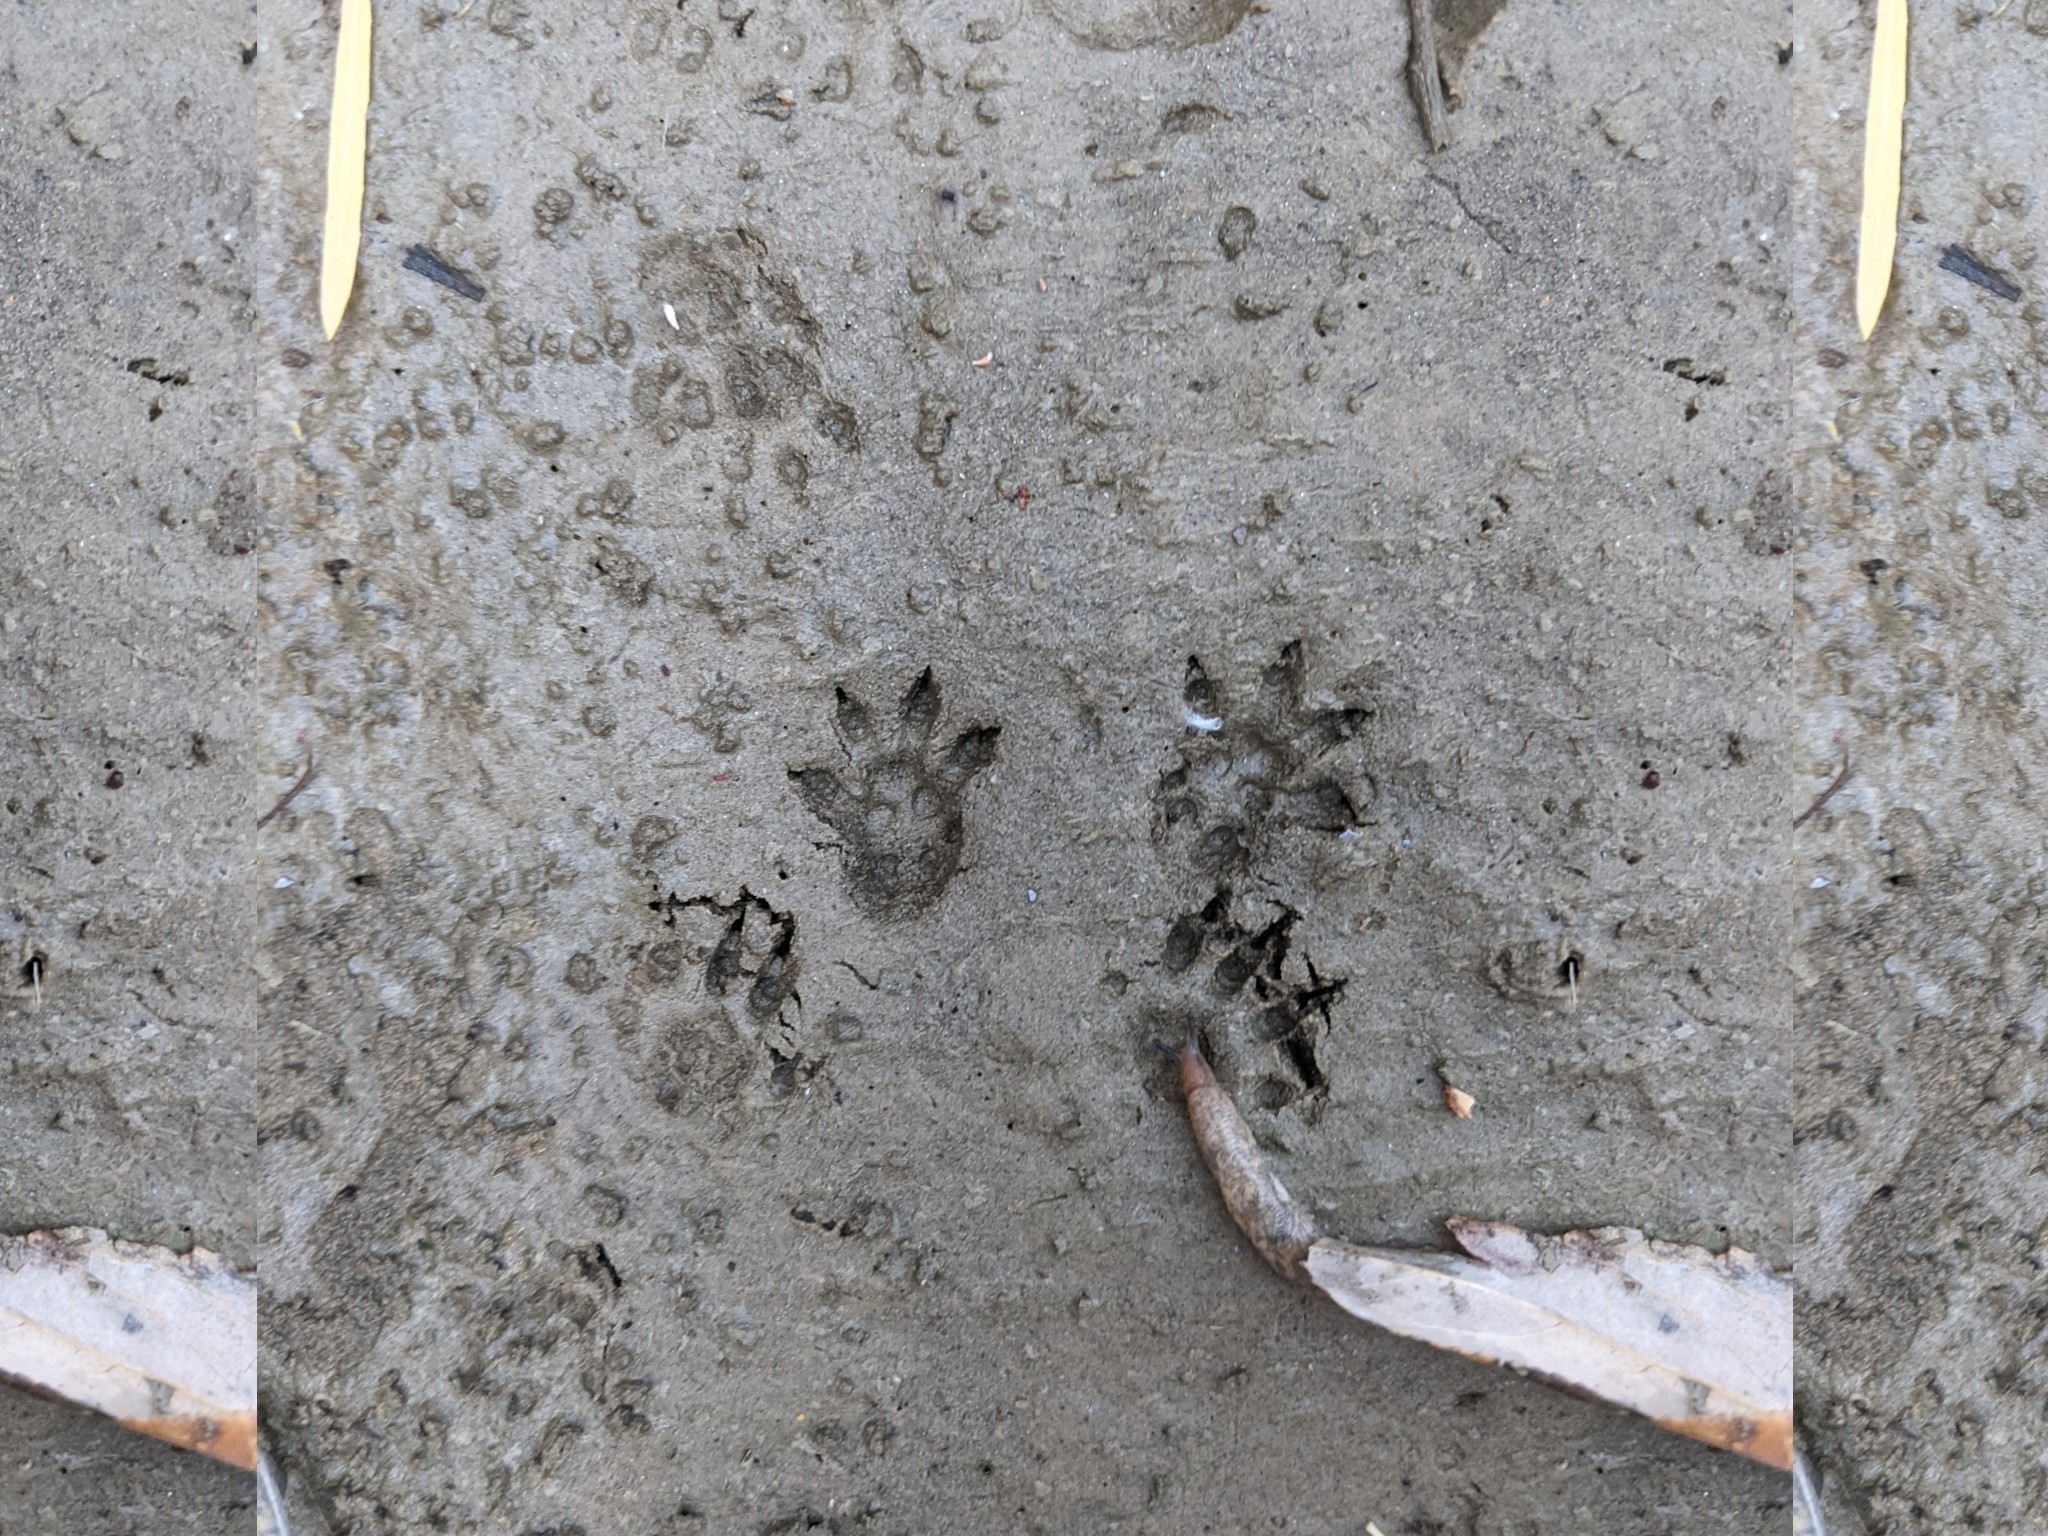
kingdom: Animalia
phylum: Chordata
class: Mammalia
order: Rodentia
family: Cricetidae
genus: Neotoma
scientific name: Neotoma macrotis
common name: Big-eared woodrat
